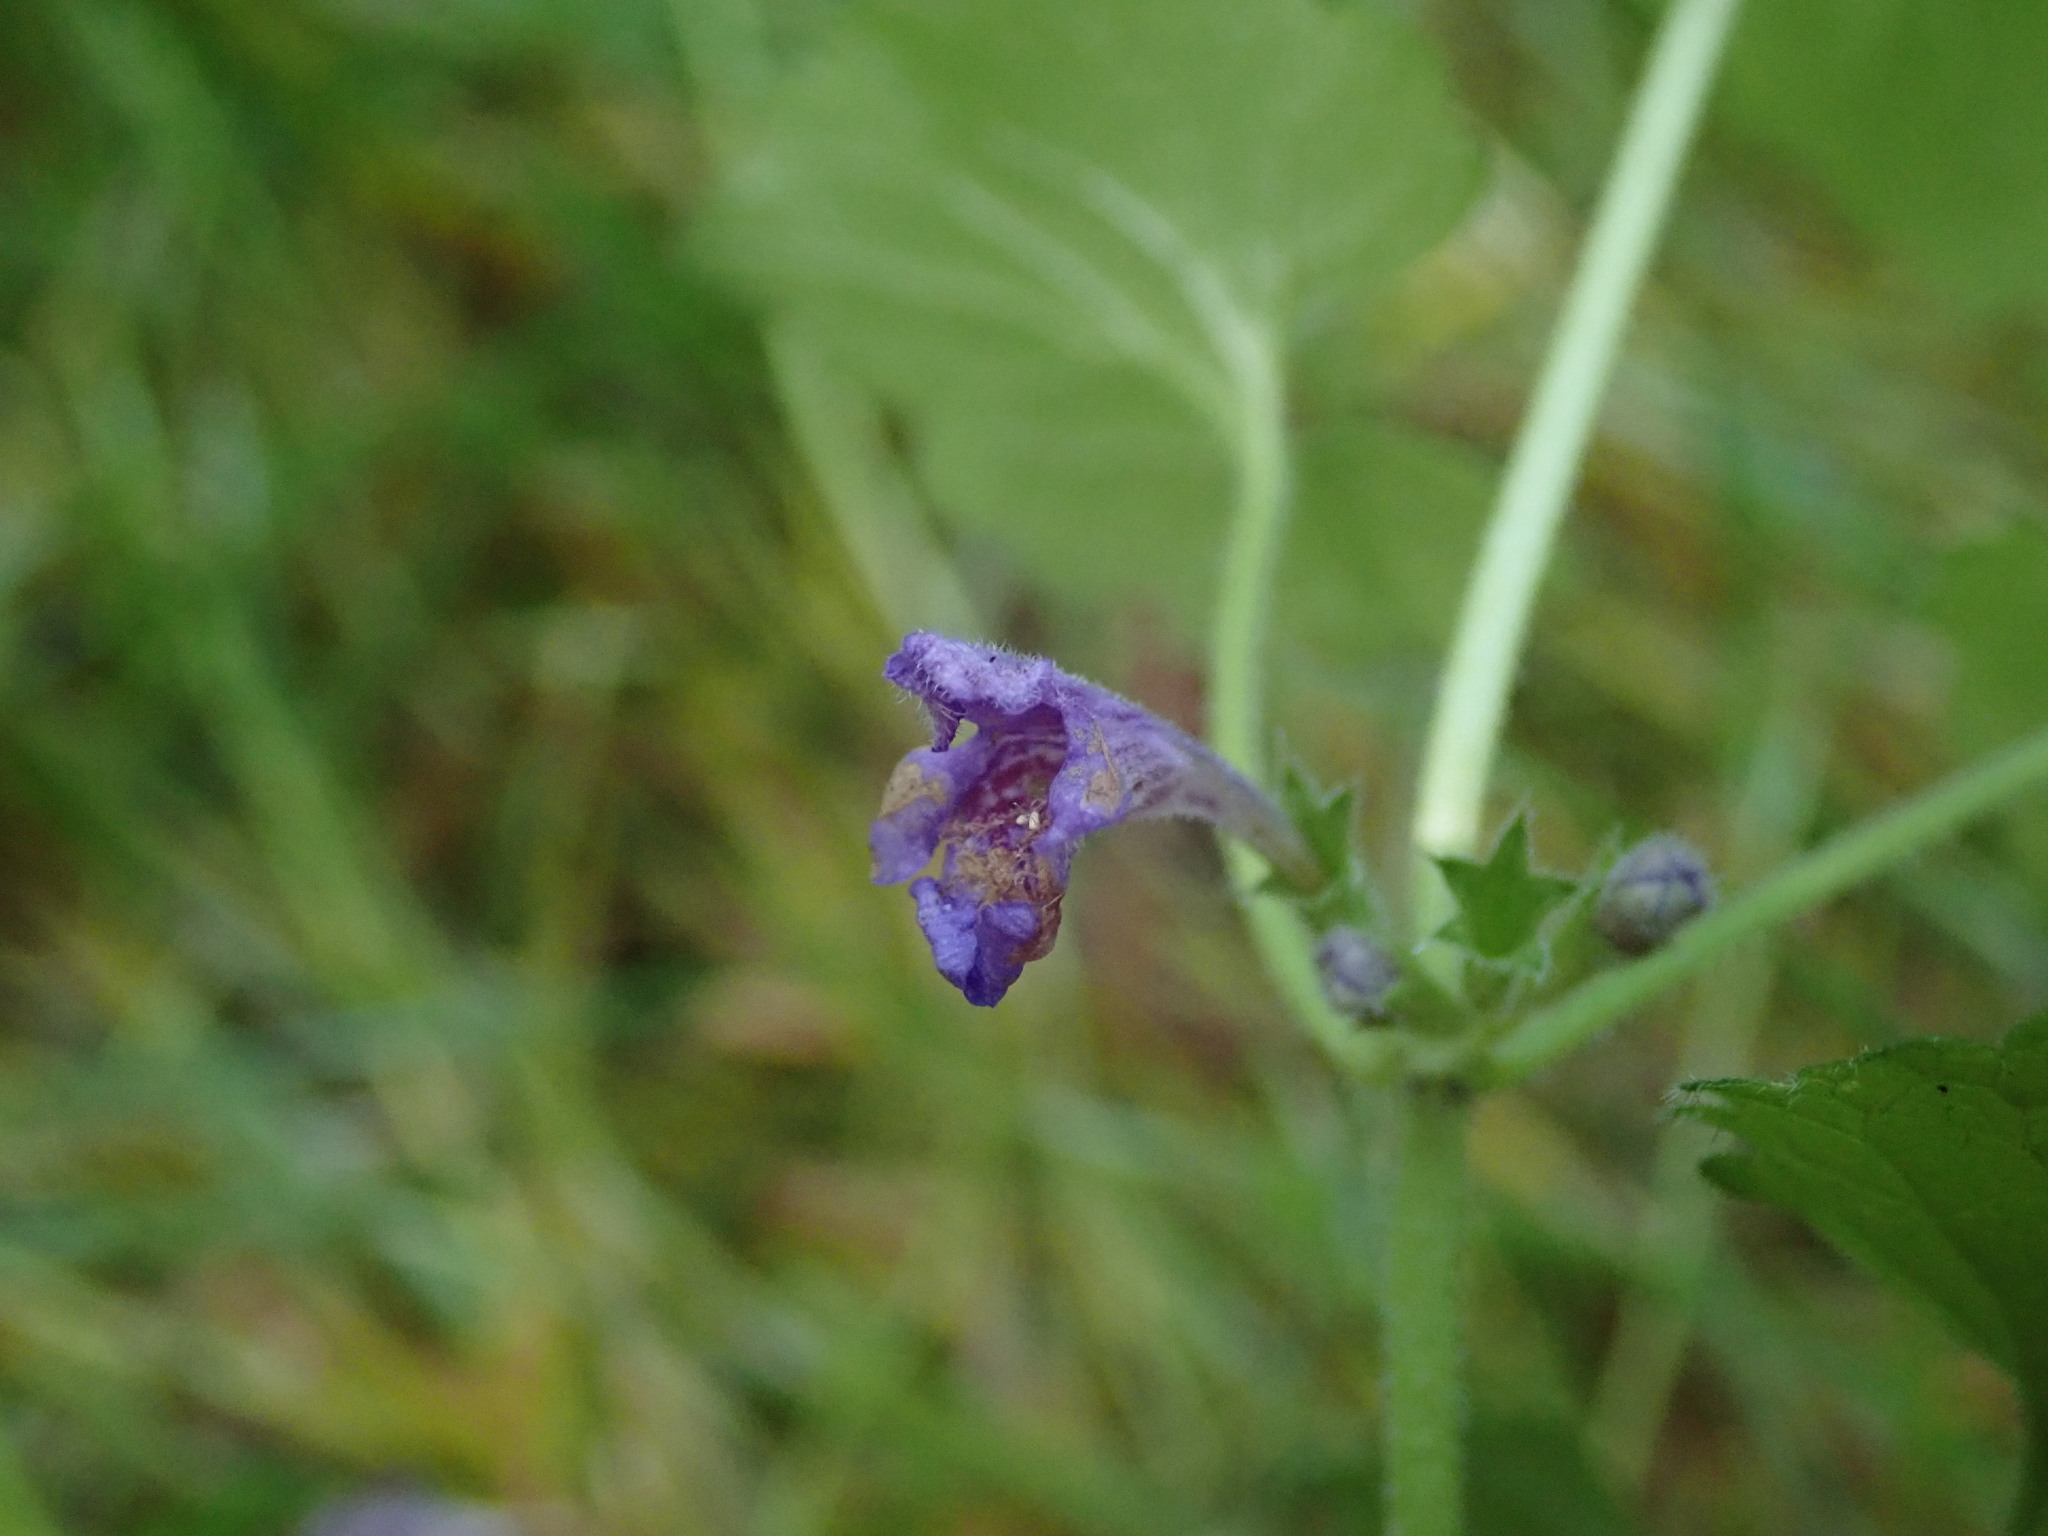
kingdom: Plantae
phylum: Tracheophyta
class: Magnoliopsida
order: Lamiales
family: Lamiaceae
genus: Glechoma
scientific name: Glechoma hederacea
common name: Ground ivy
